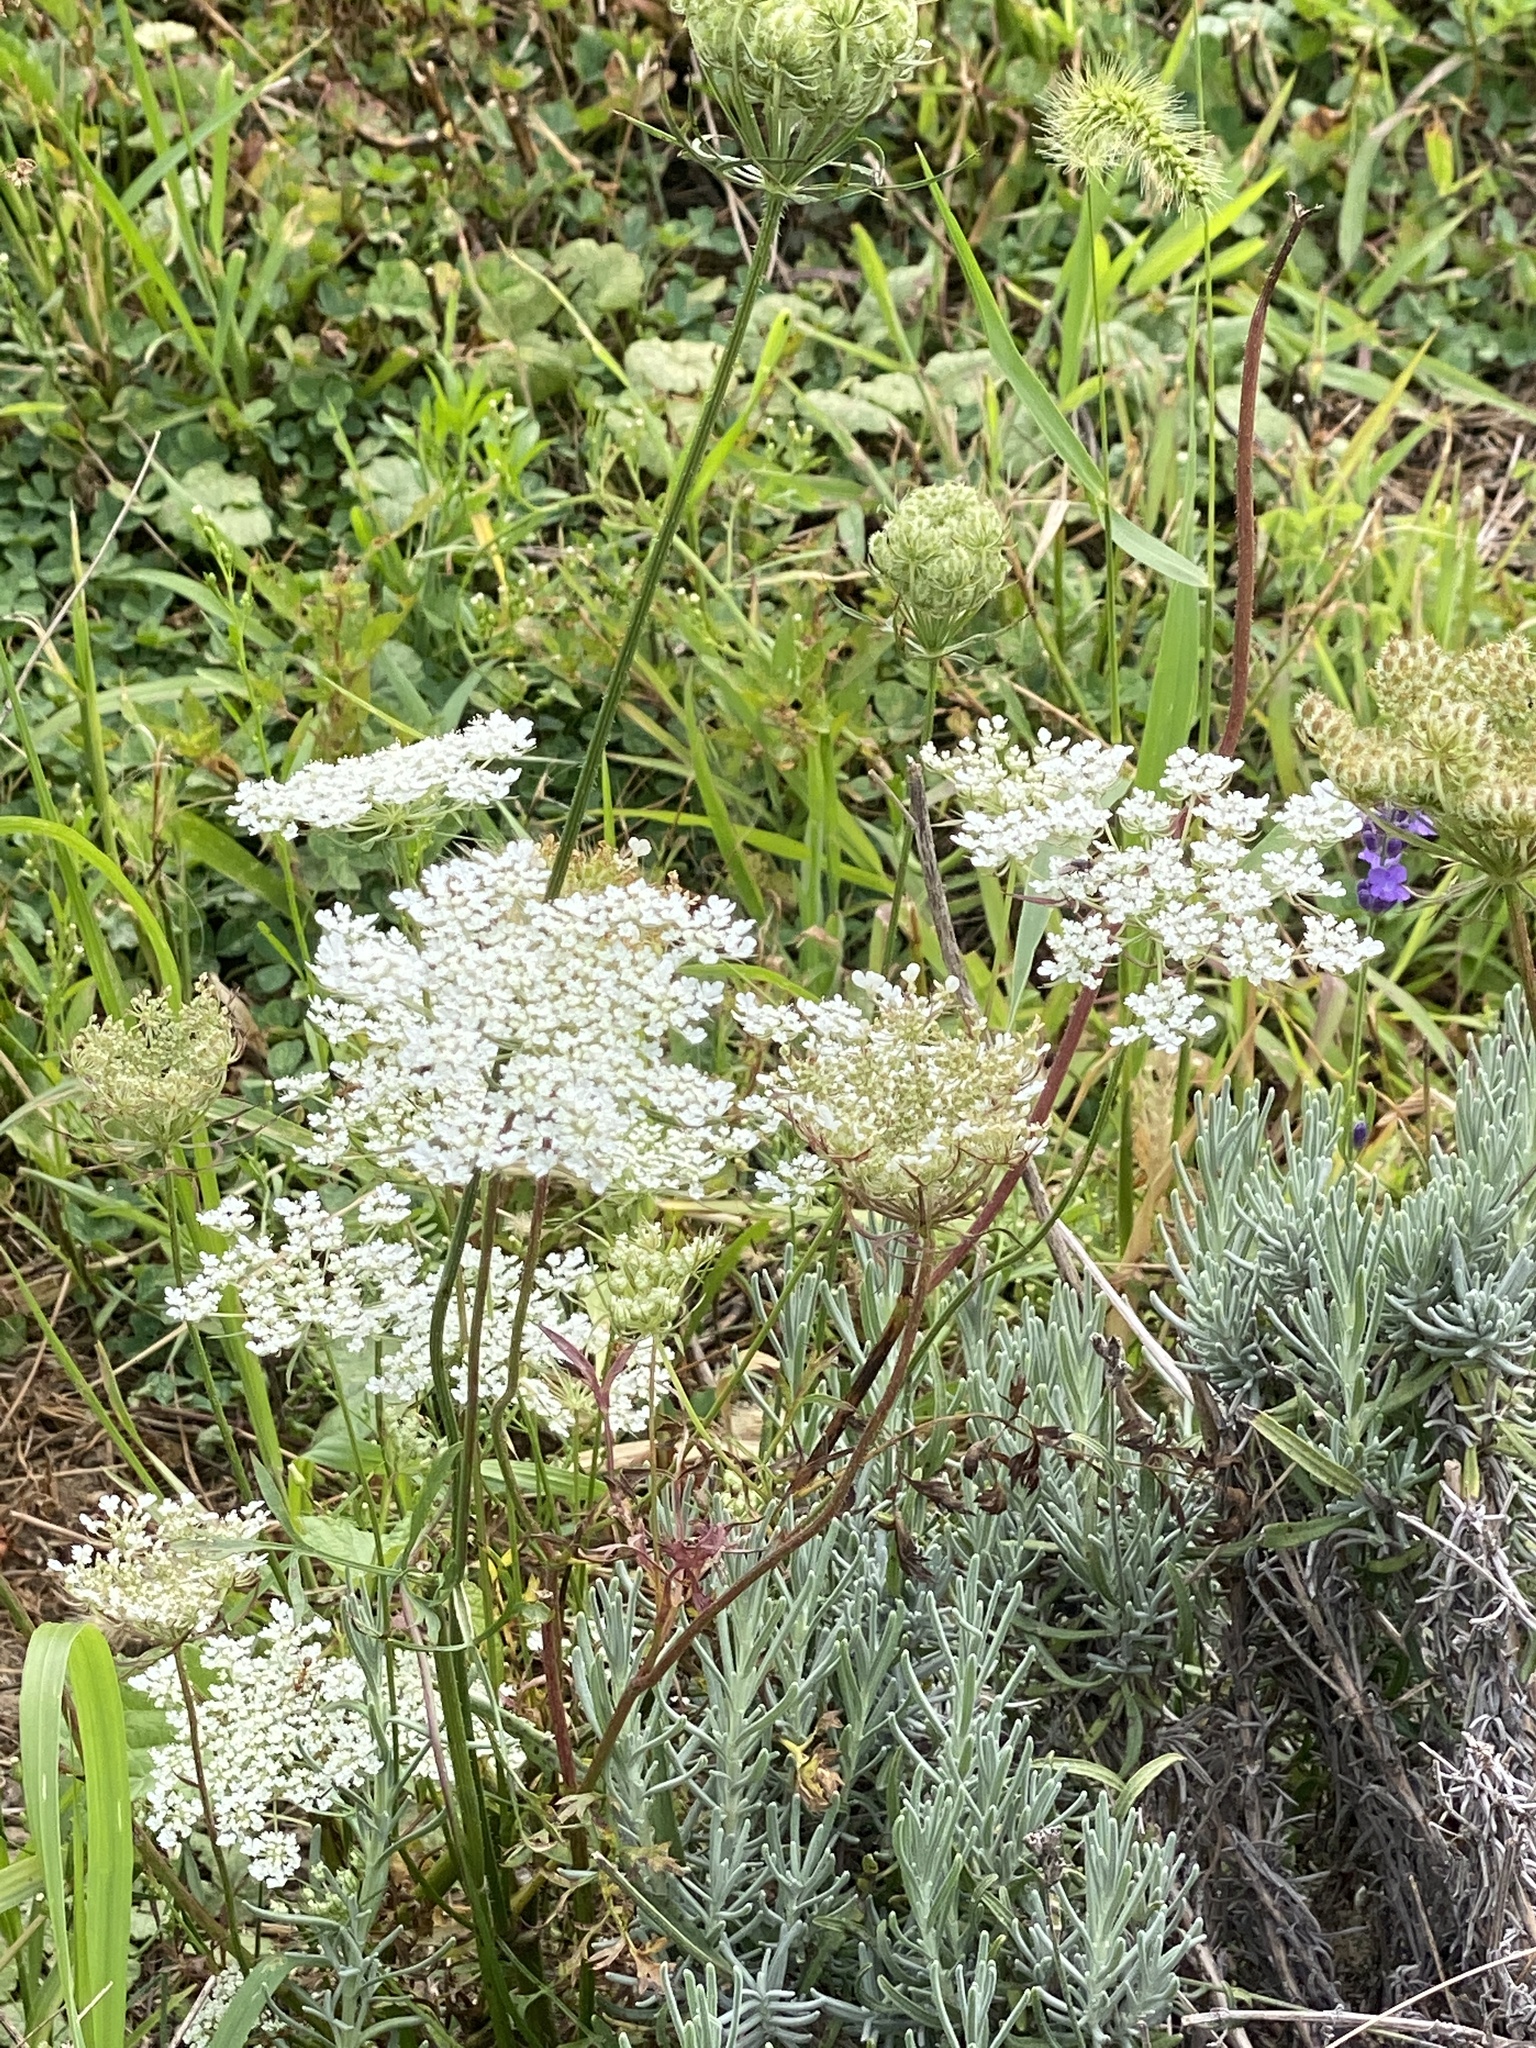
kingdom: Plantae
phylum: Tracheophyta
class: Magnoliopsida
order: Apiales
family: Apiaceae
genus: Daucus
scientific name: Daucus carota
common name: Wild carrot
